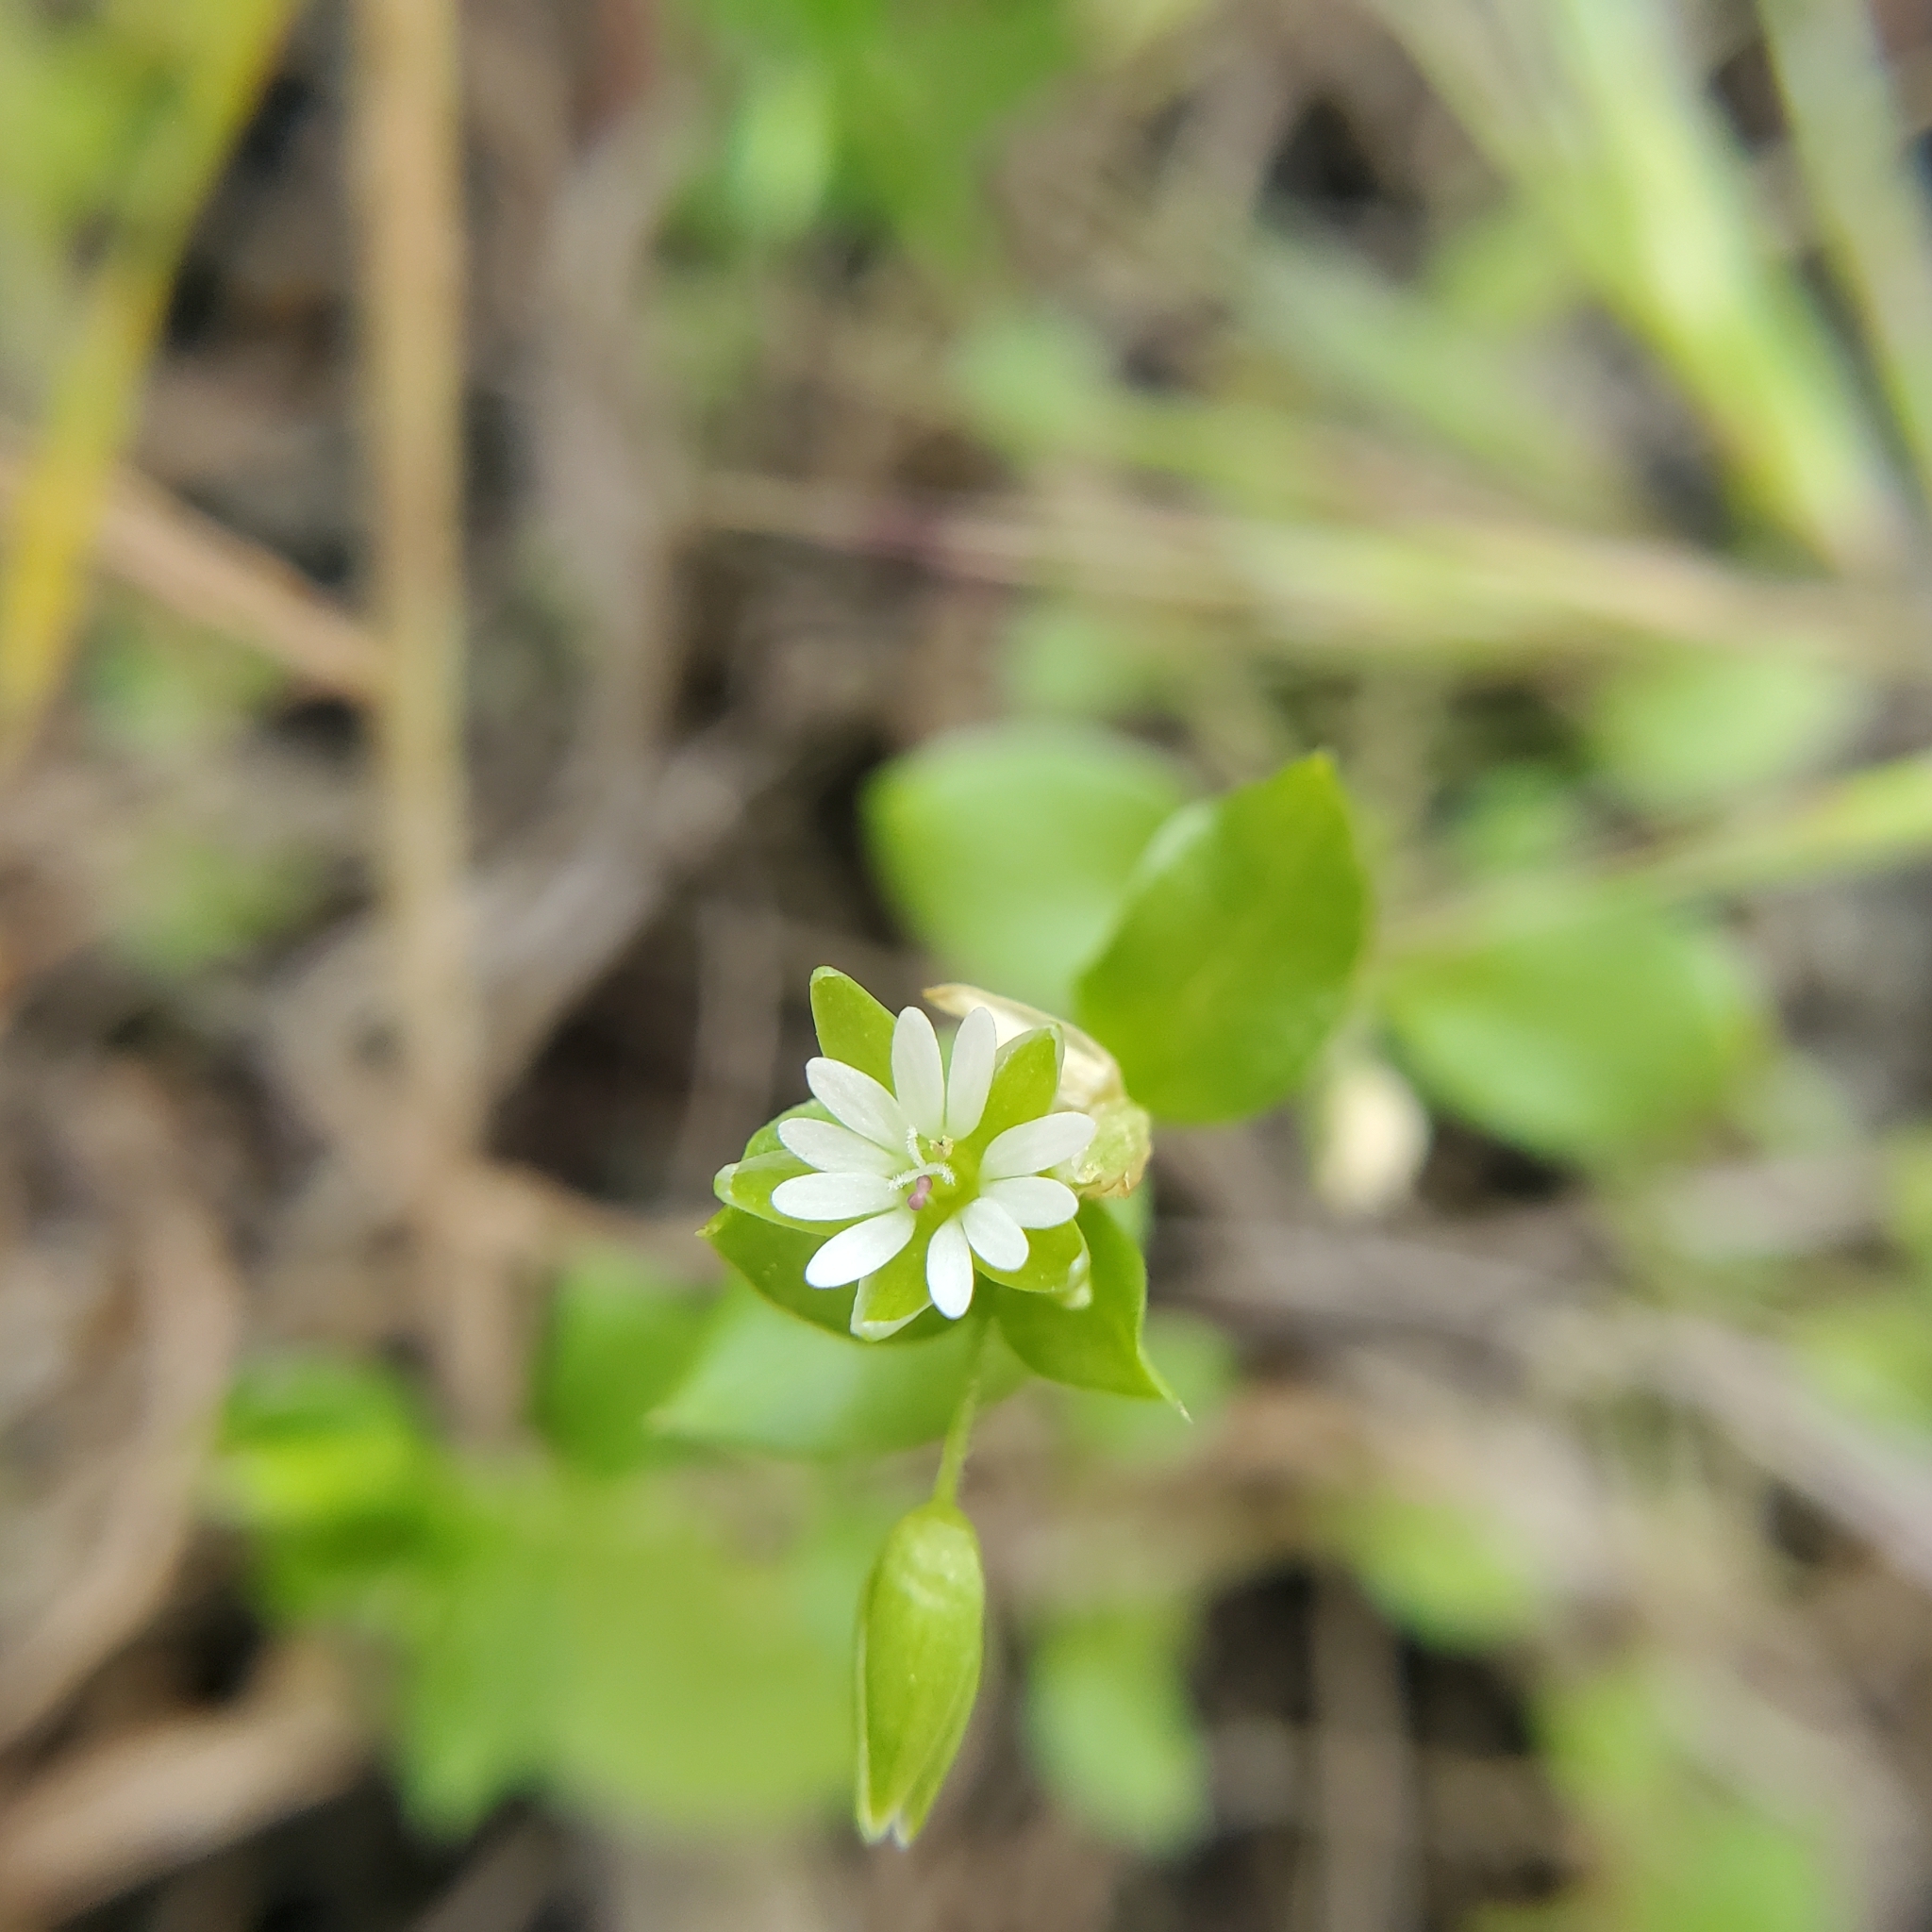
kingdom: Plantae
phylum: Tracheophyta
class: Magnoliopsida
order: Caryophyllales
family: Caryophyllaceae
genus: Stellaria
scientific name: Stellaria media
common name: Common chickweed
